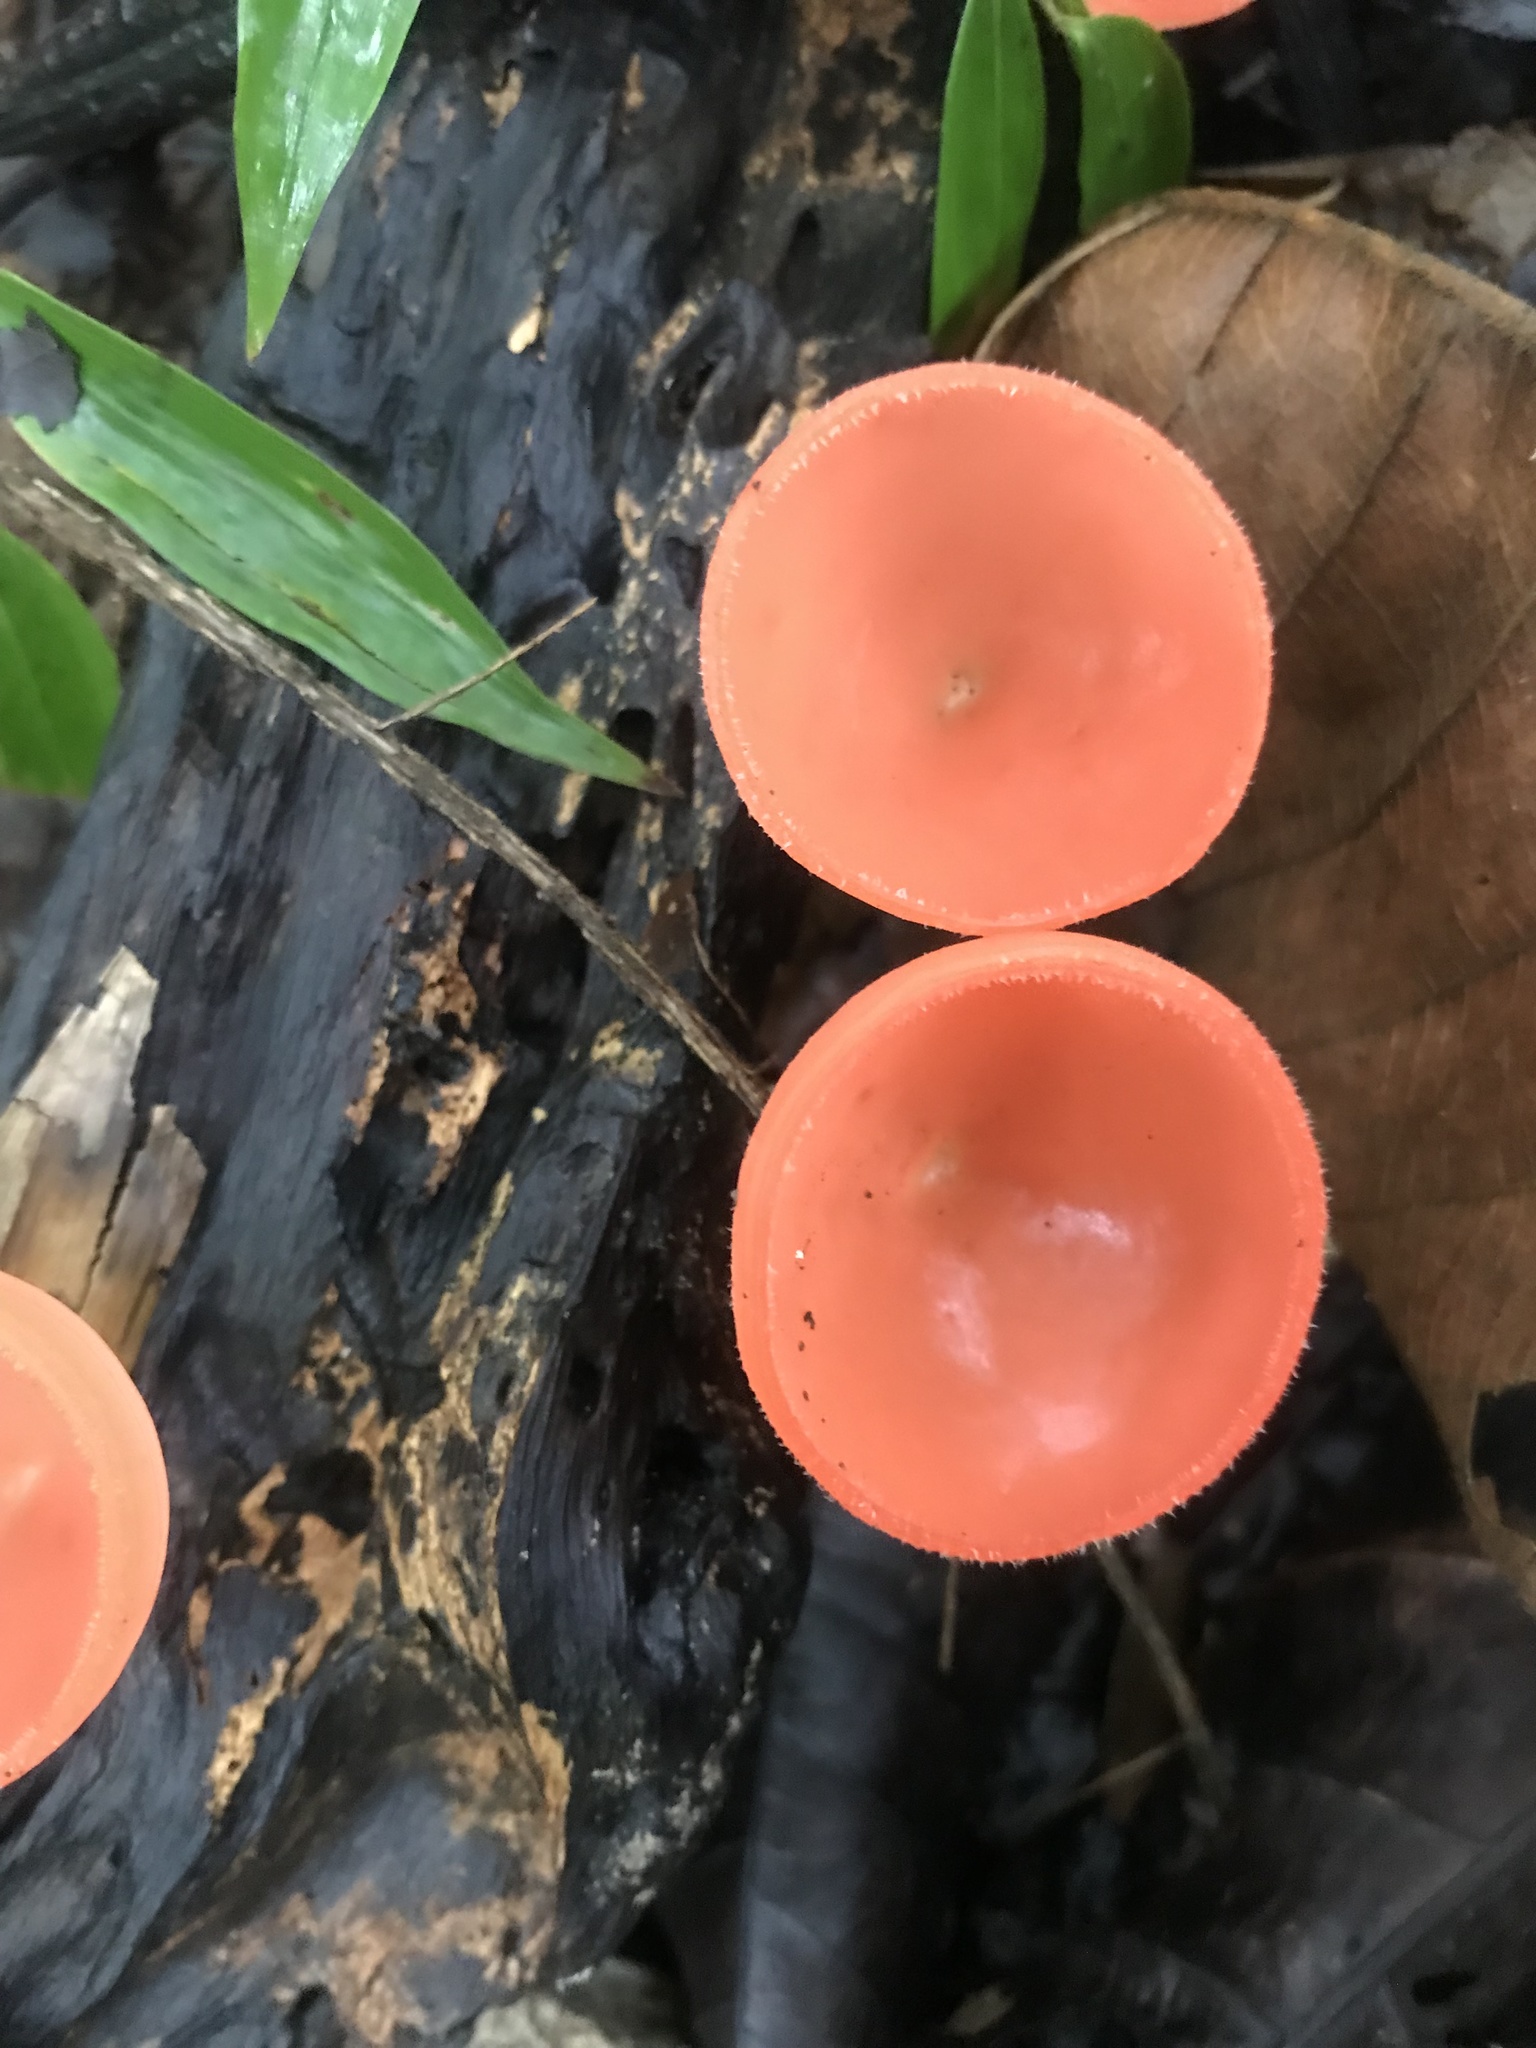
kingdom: Fungi
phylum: Ascomycota
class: Pezizomycetes
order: Pezizales
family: Sarcoscyphaceae
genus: Cookeina
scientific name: Cookeina speciosa
